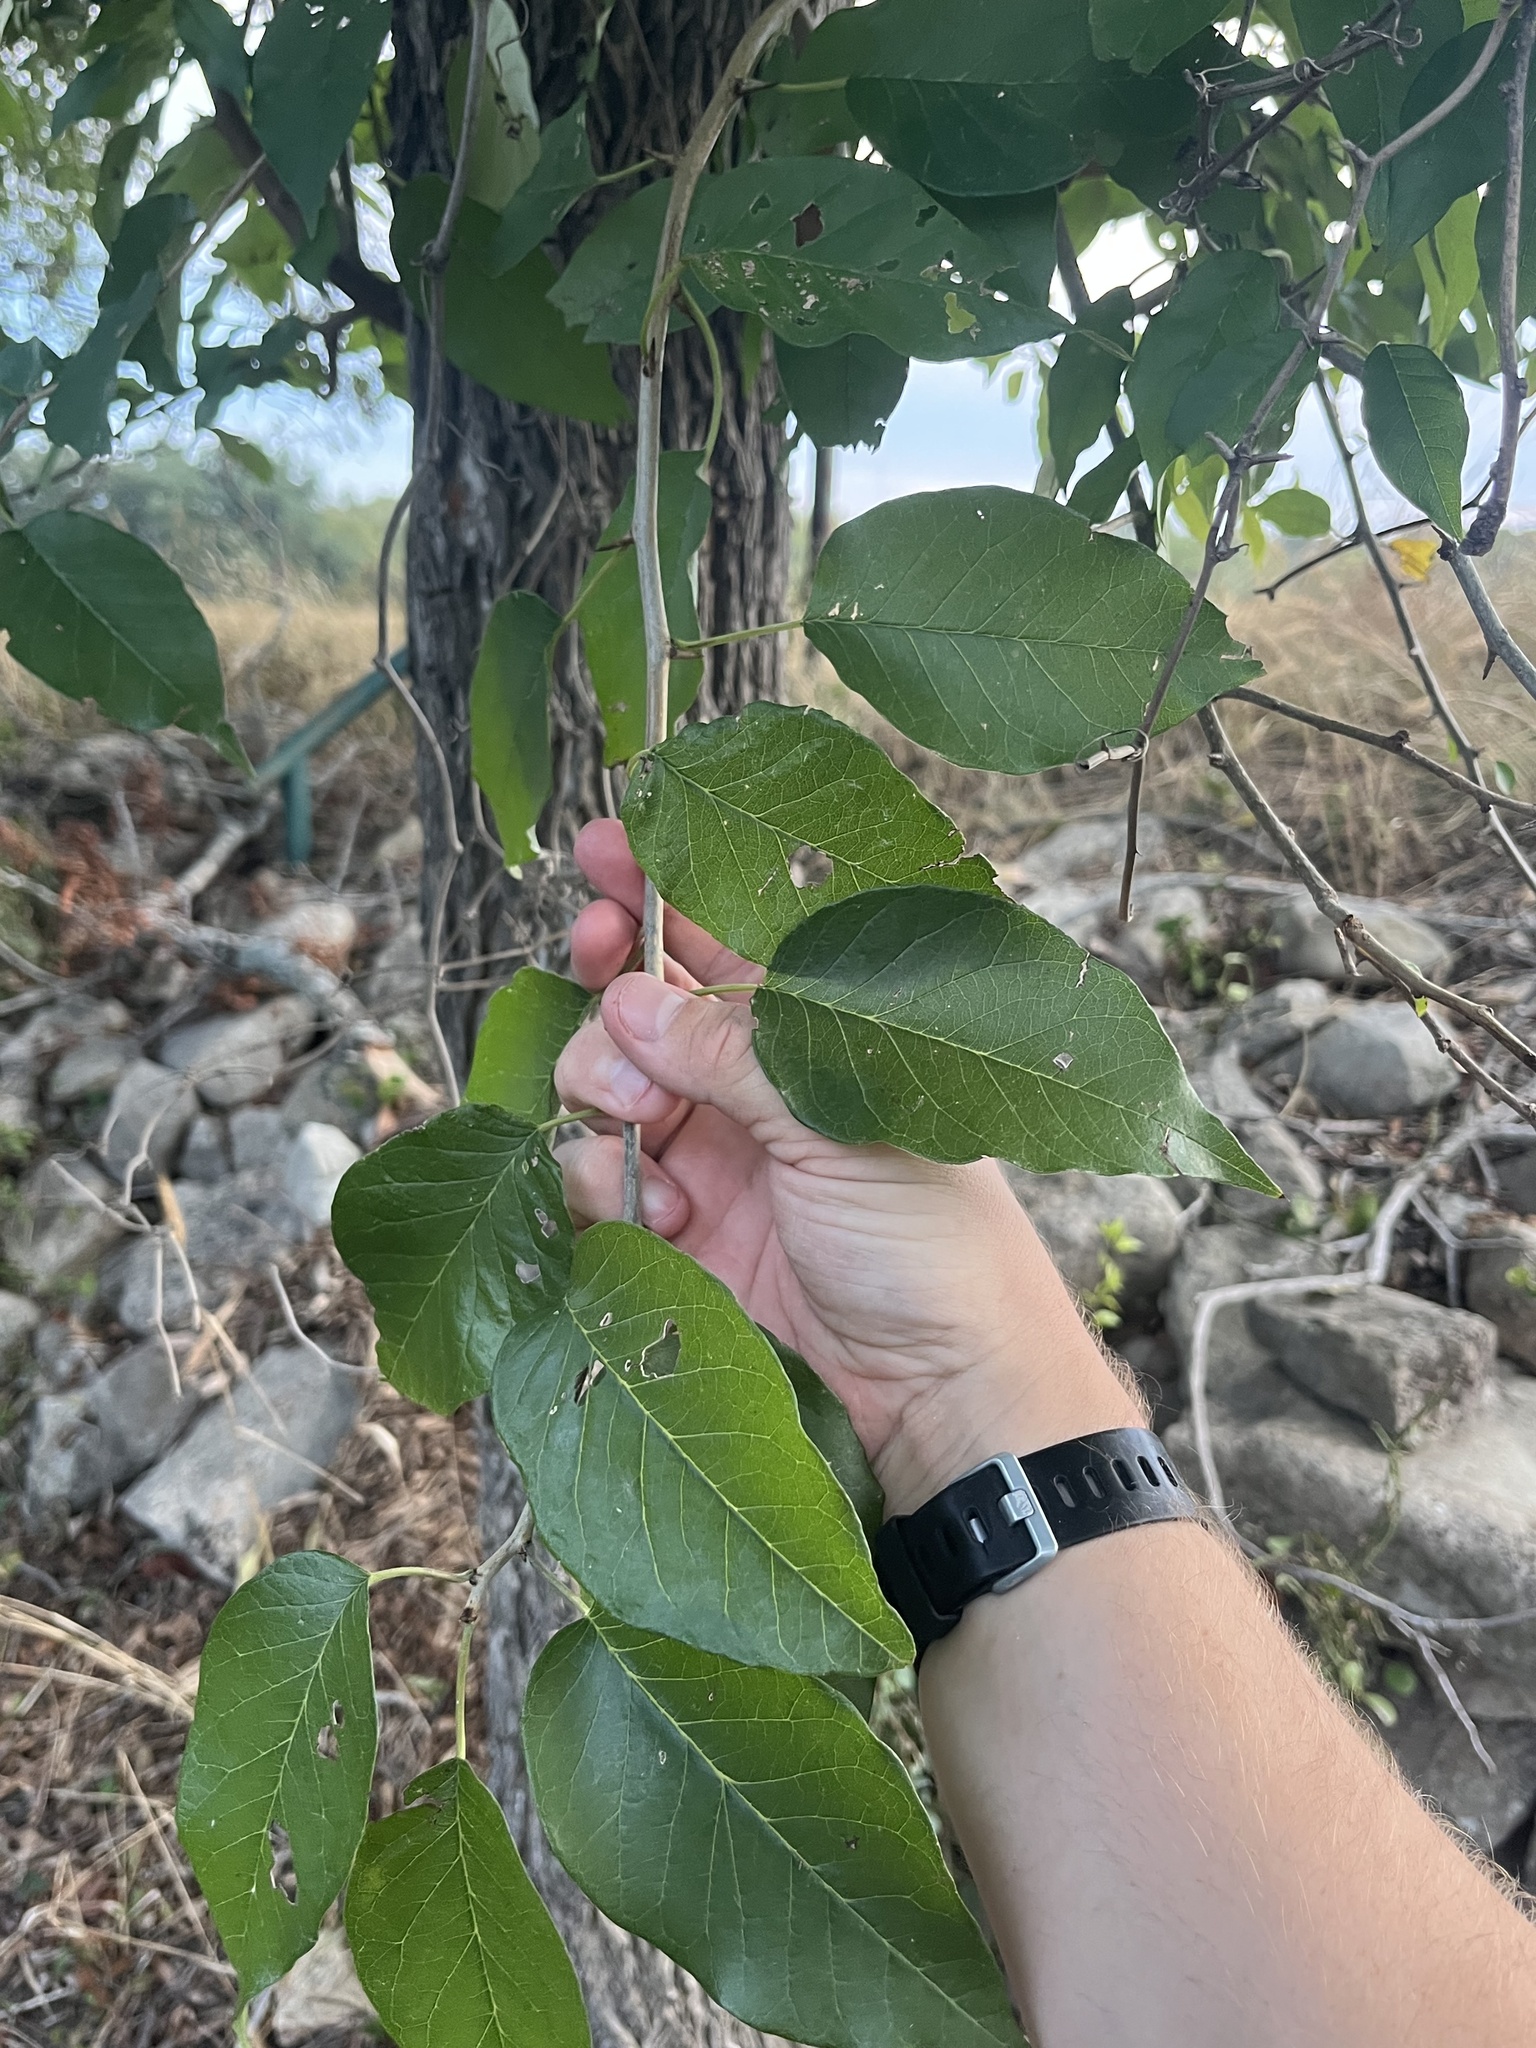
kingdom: Plantae
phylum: Tracheophyta
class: Magnoliopsida
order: Rosales
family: Moraceae
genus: Maclura
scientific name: Maclura pomifera
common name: Osage-orange
